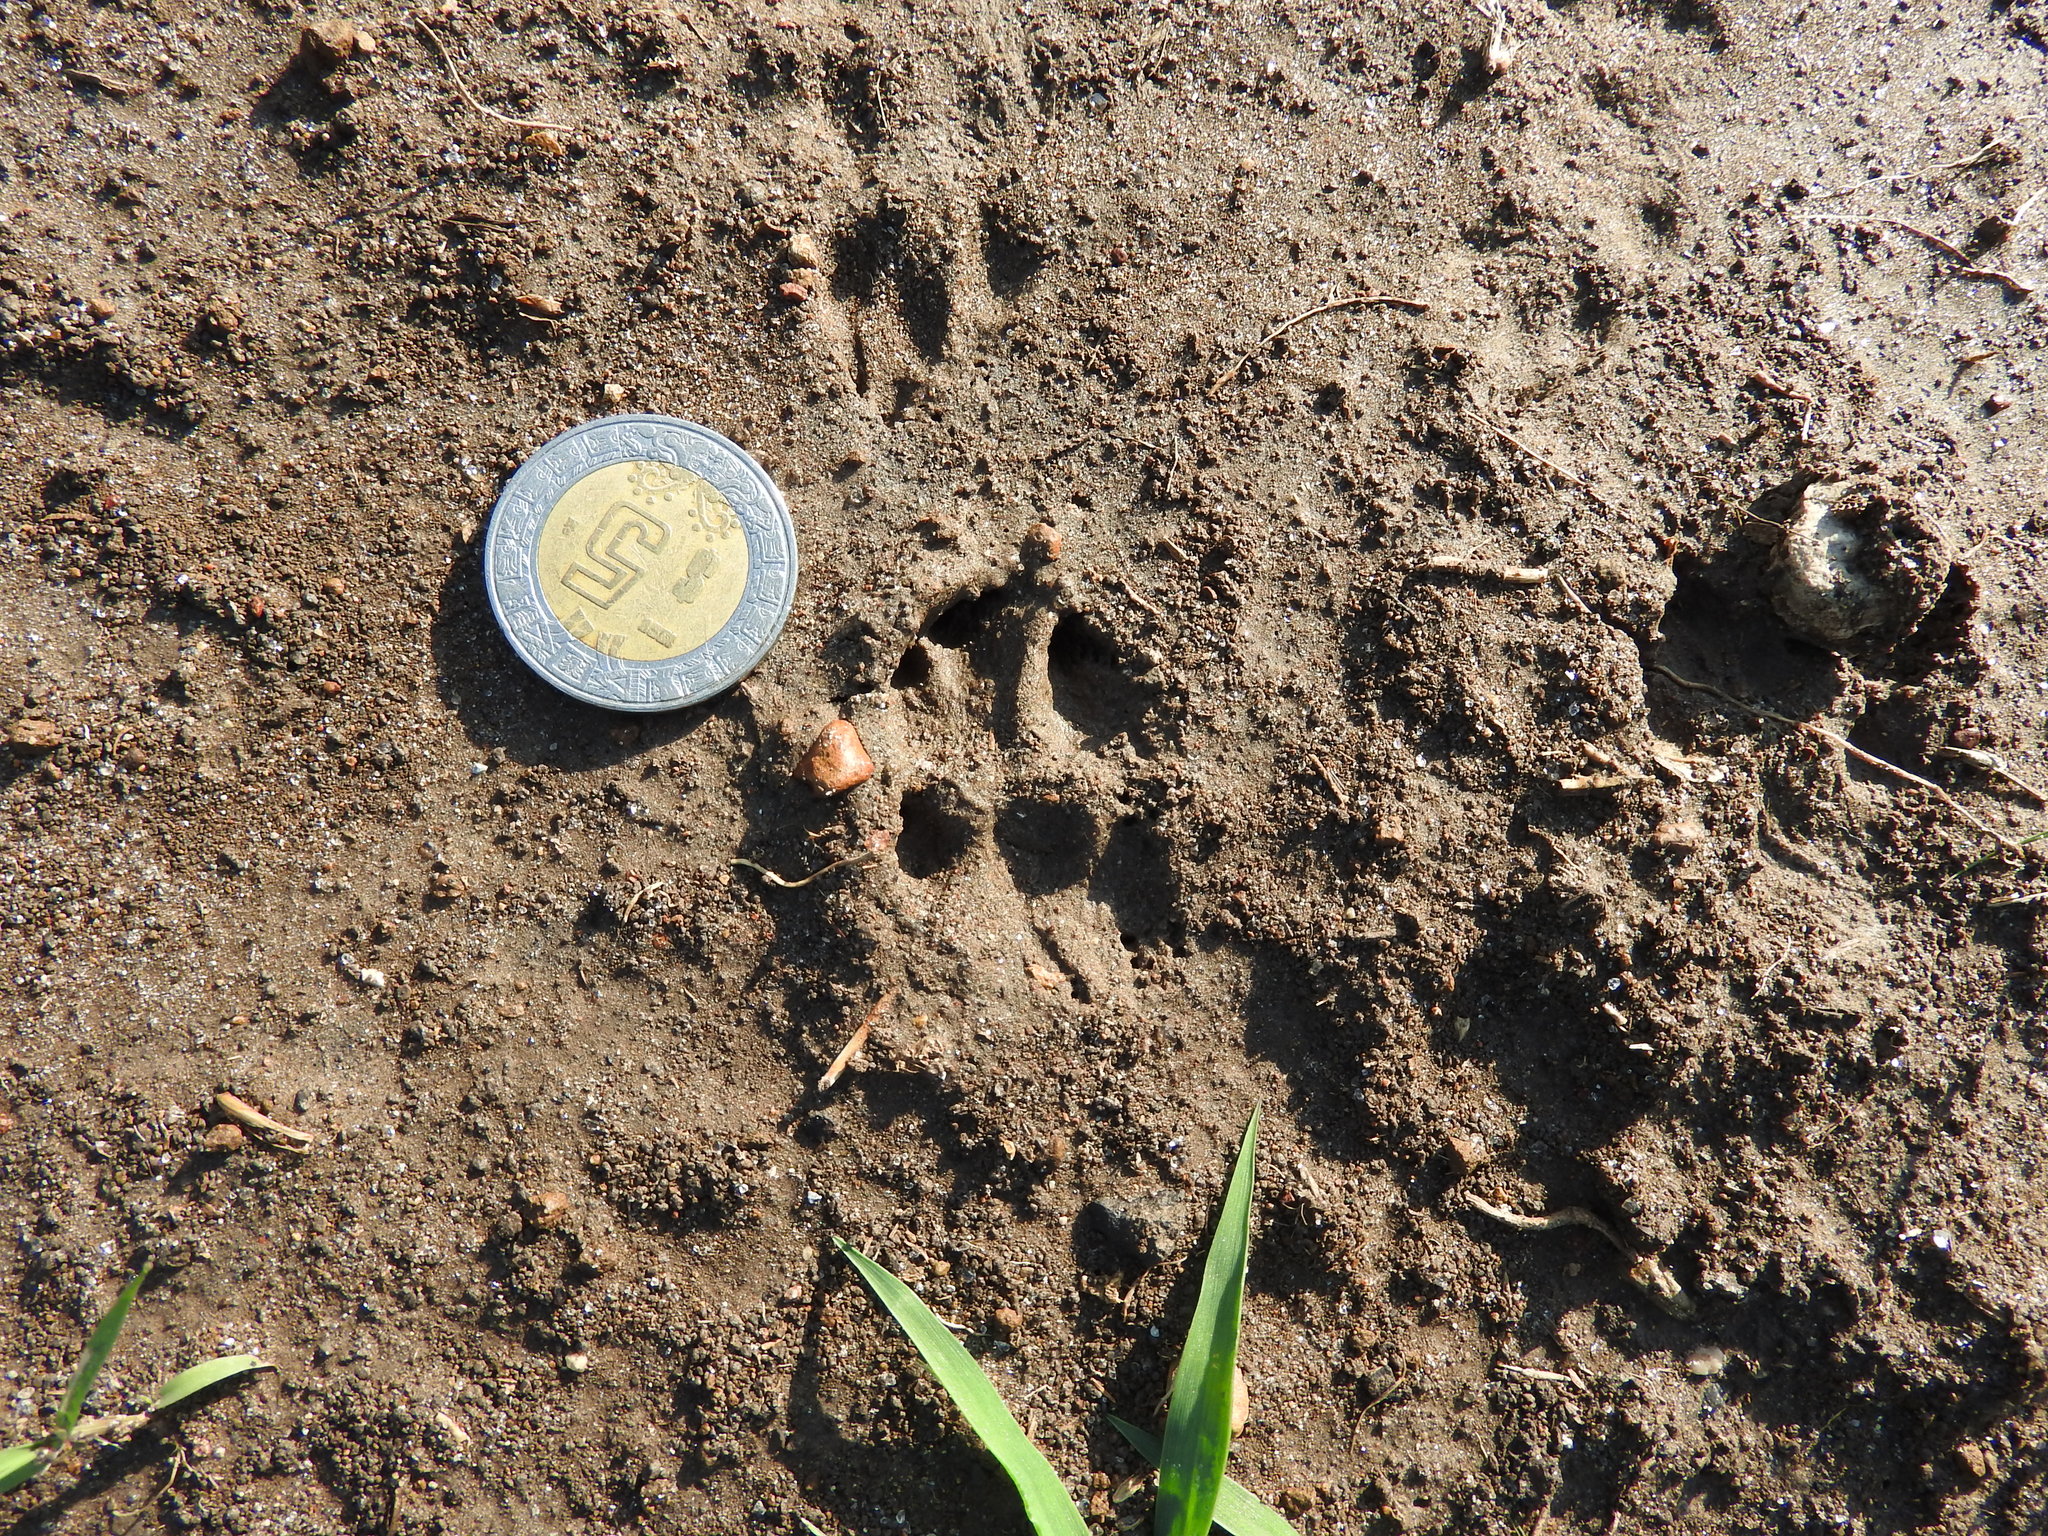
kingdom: Animalia
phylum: Chordata
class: Mammalia
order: Rodentia
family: Sciuridae
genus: Otospermophilus
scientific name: Otospermophilus variegatus
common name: Rock squirrel
